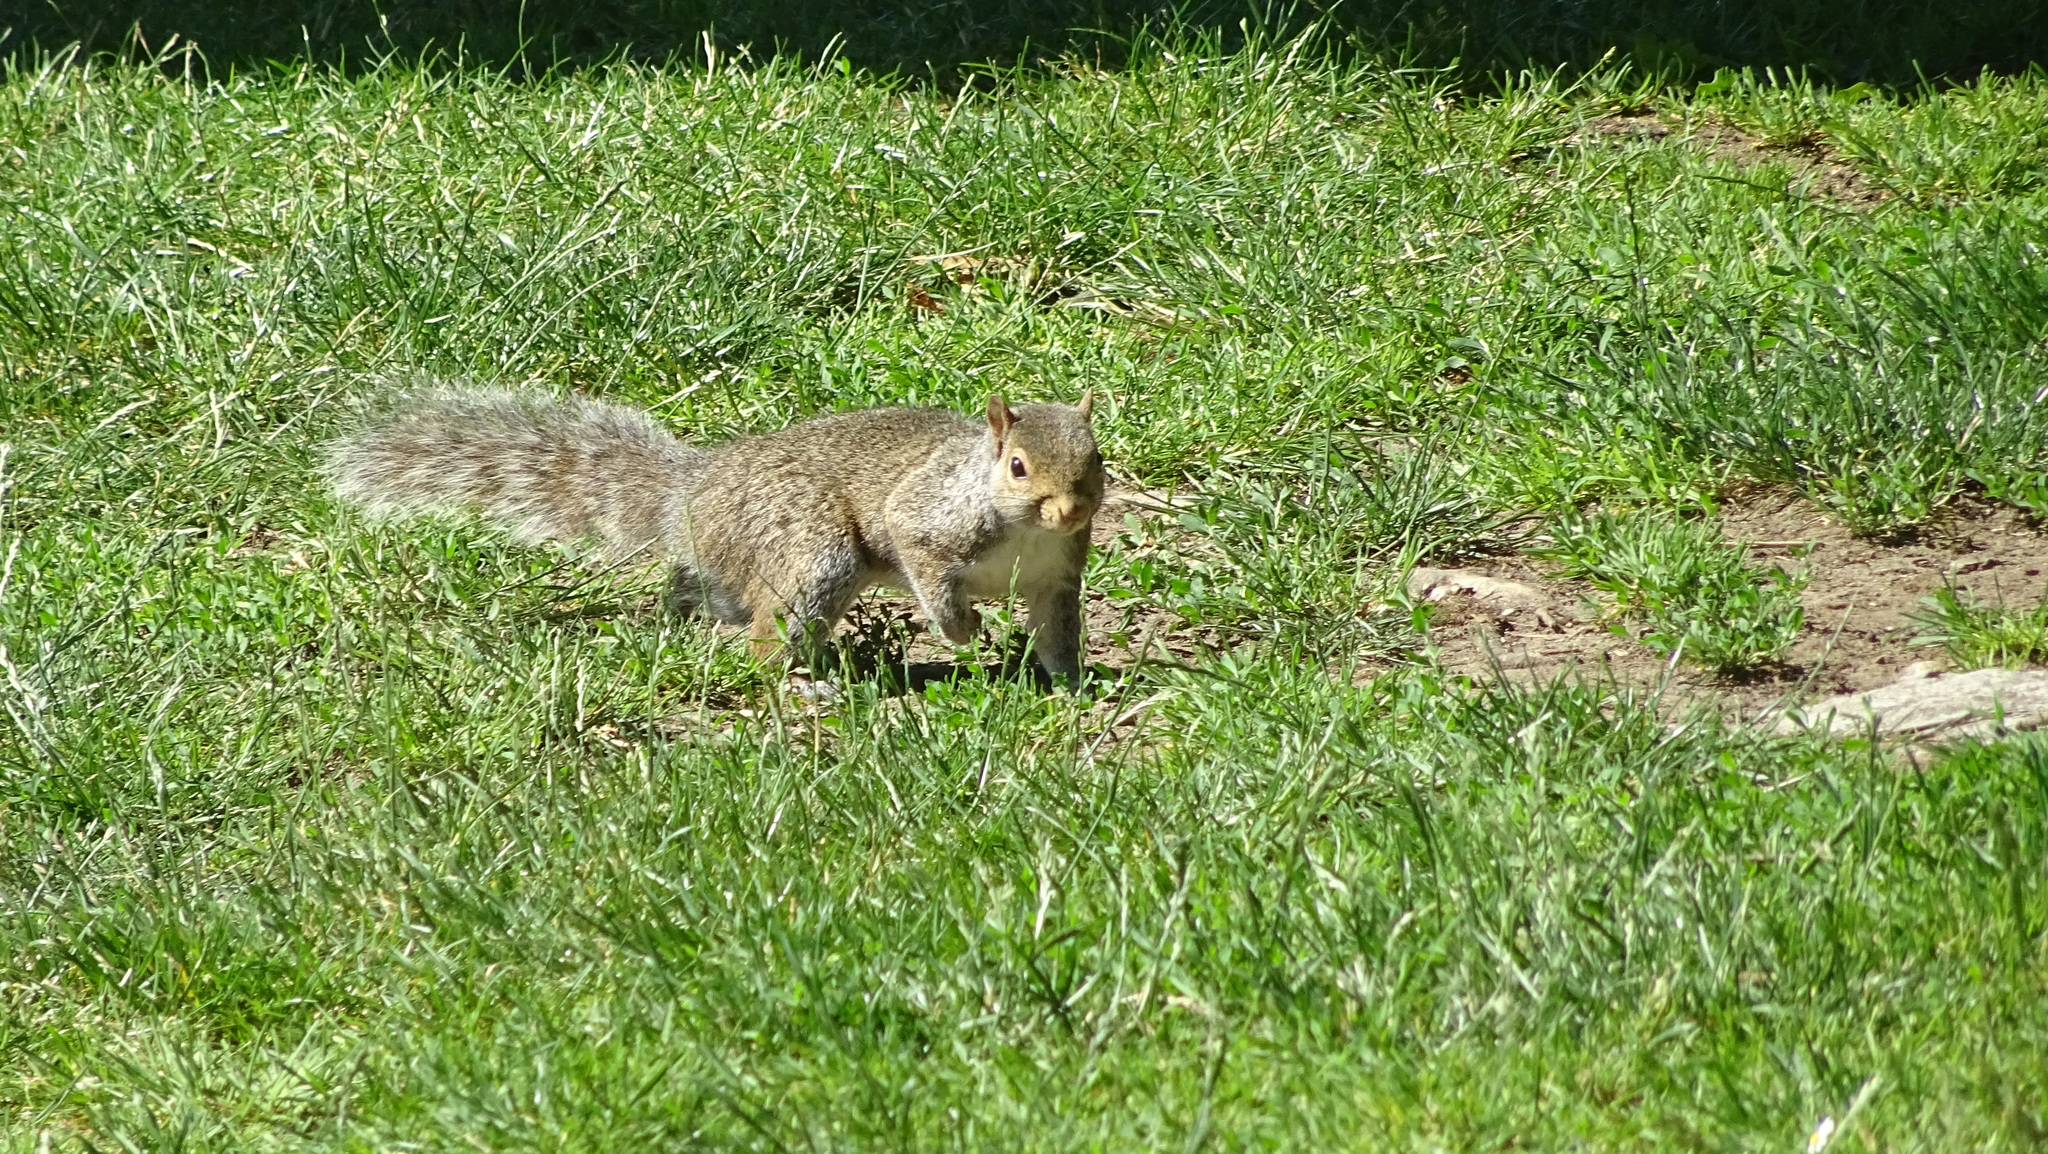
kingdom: Animalia
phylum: Chordata
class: Mammalia
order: Rodentia
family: Sciuridae
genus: Sciurus
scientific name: Sciurus carolinensis
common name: Eastern gray squirrel
